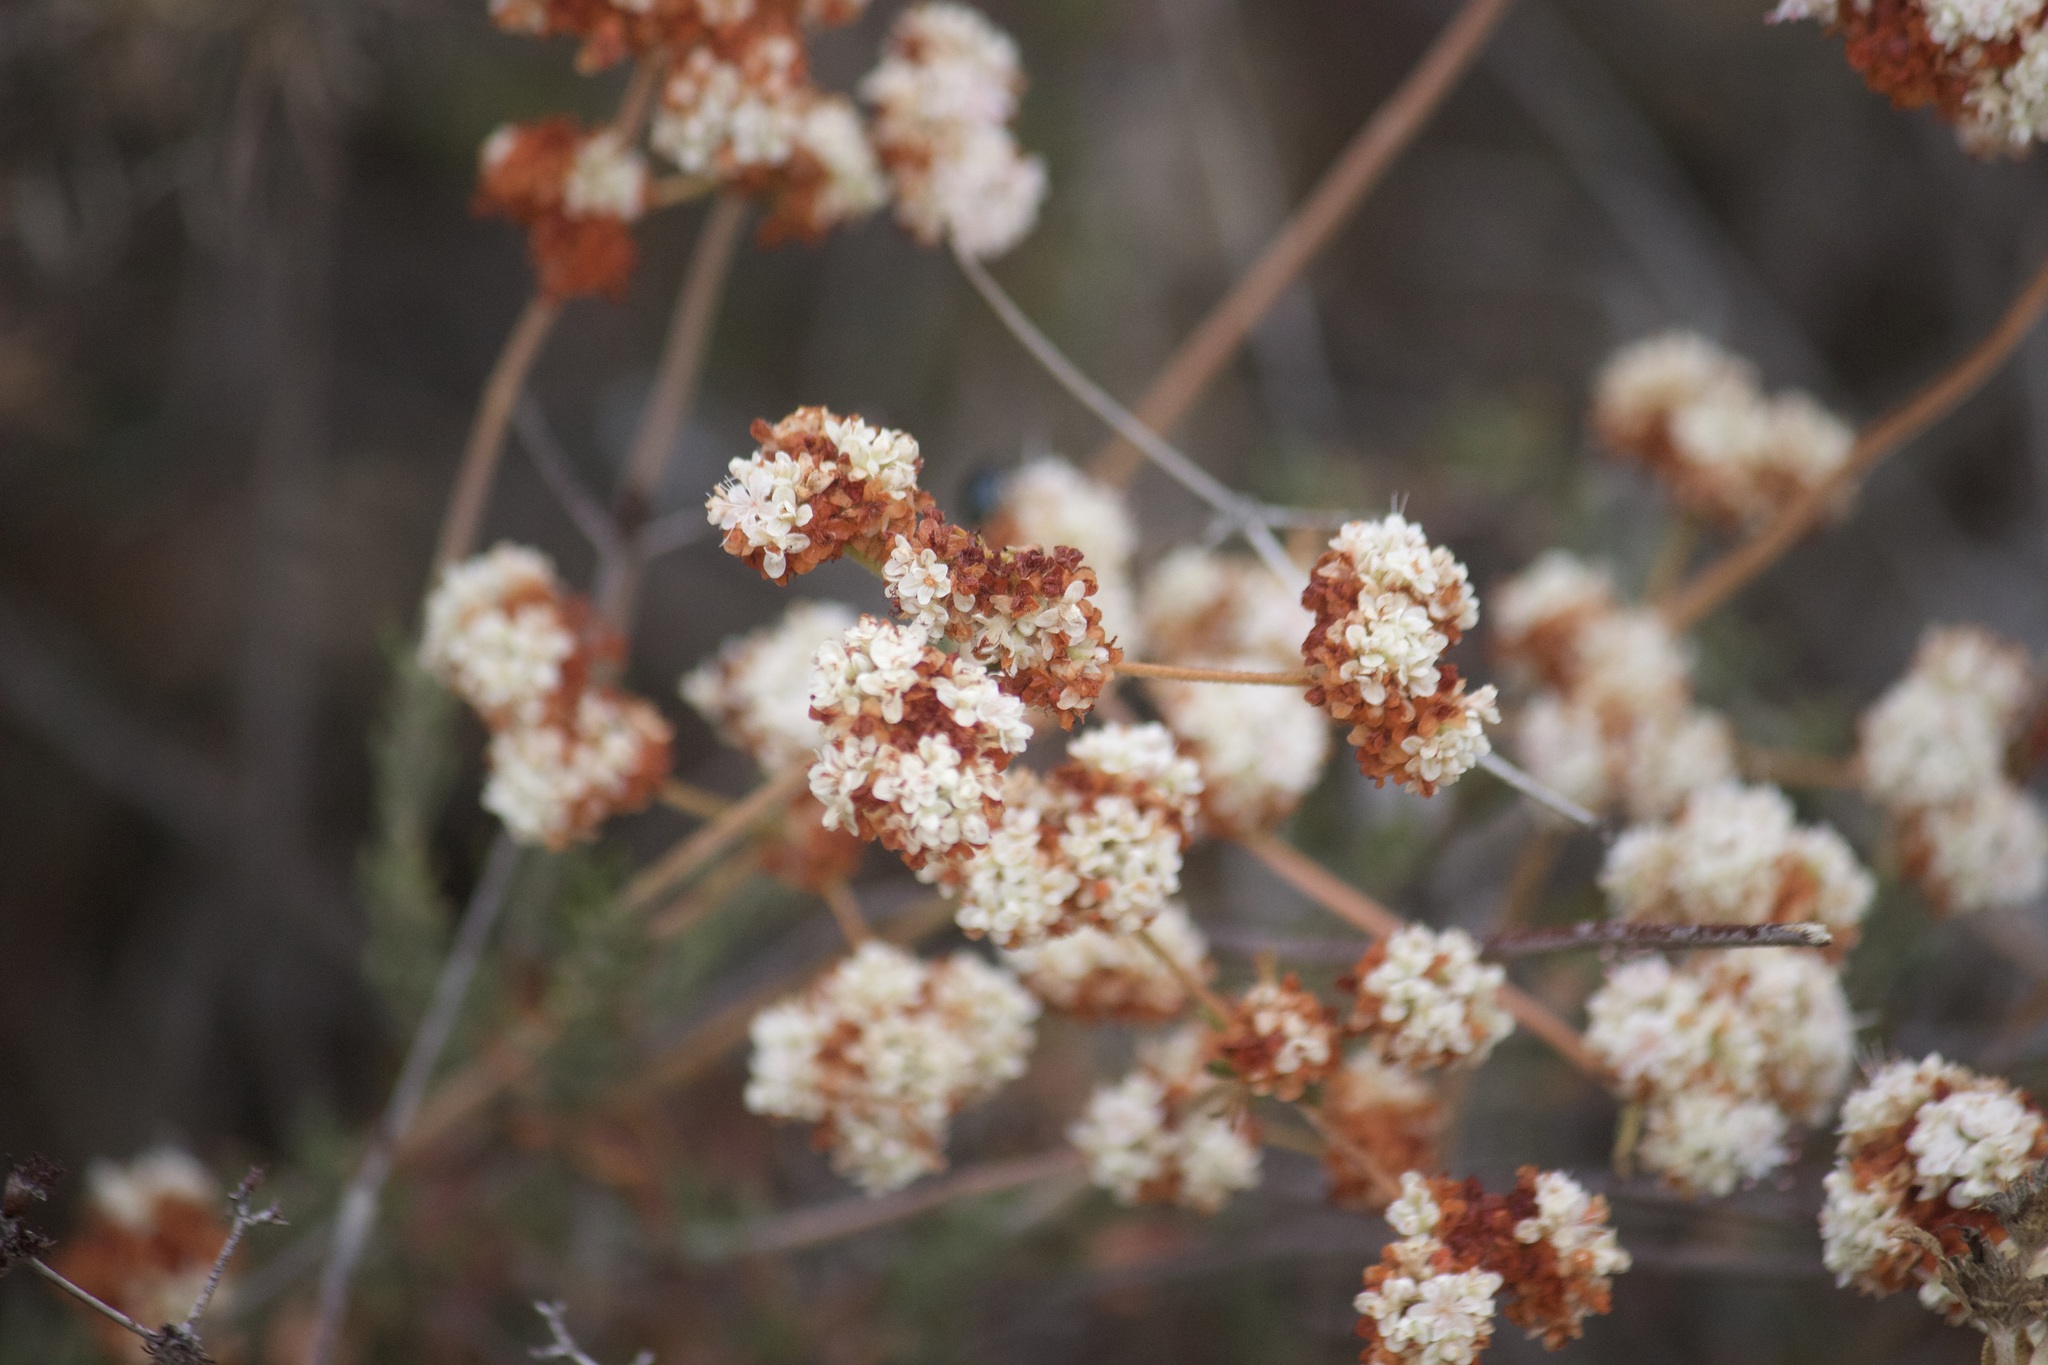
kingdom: Plantae
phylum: Tracheophyta
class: Magnoliopsida
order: Caryophyllales
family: Polygonaceae
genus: Eriogonum
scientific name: Eriogonum fasciculatum
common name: California wild buckwheat
